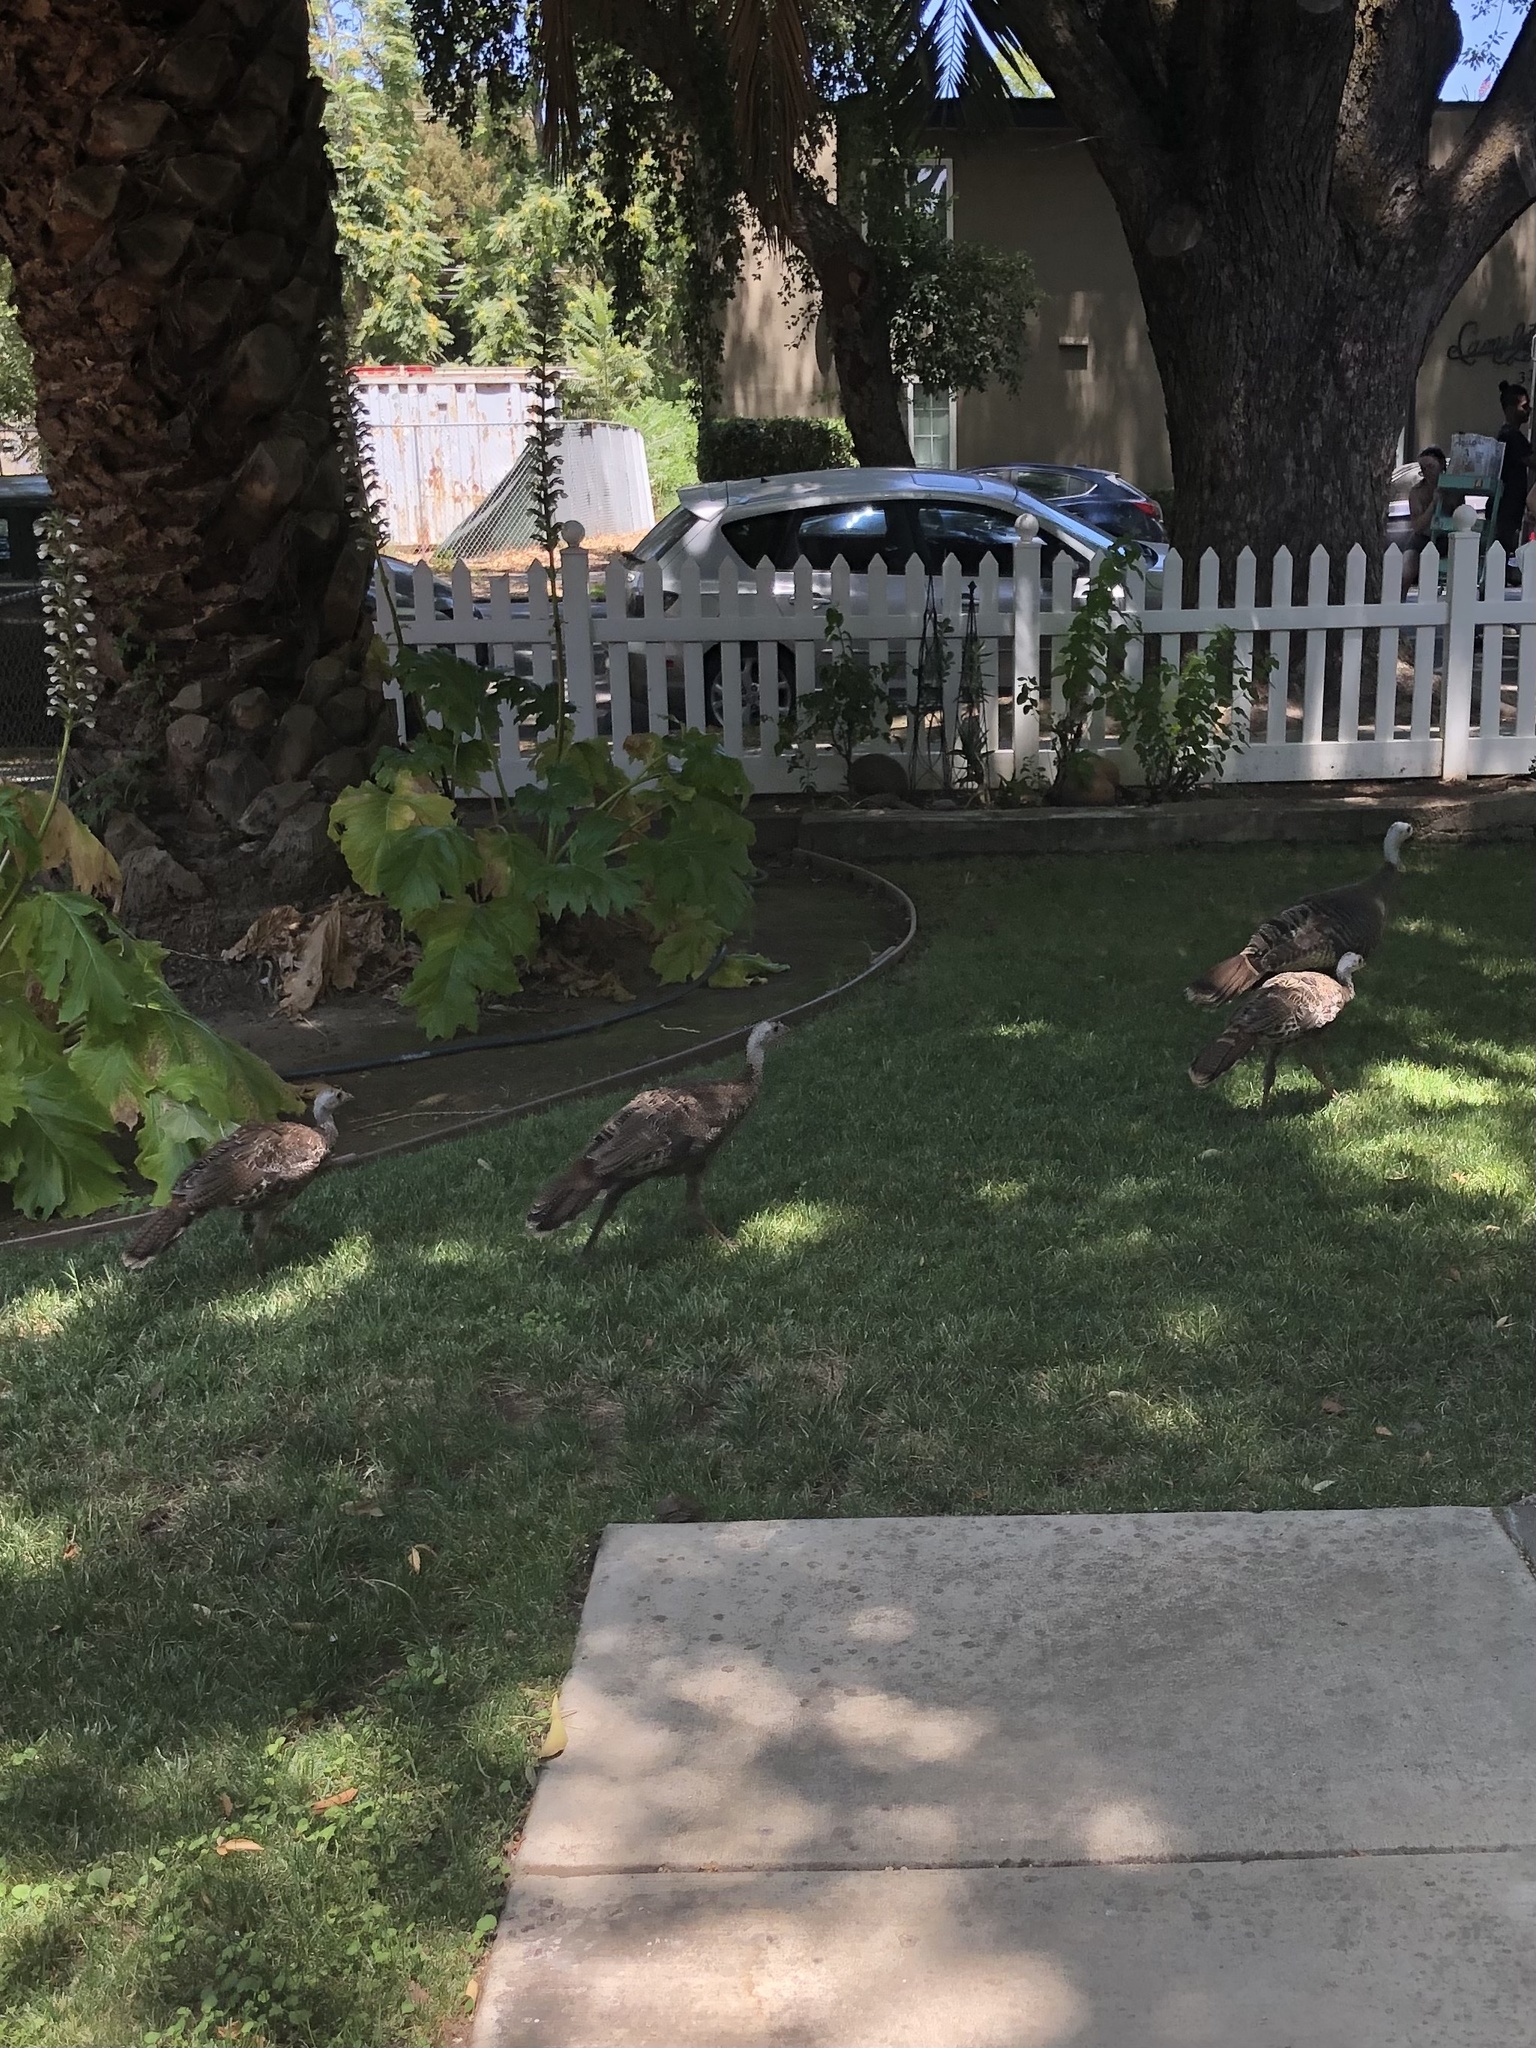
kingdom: Animalia
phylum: Chordata
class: Aves
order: Galliformes
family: Phasianidae
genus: Meleagris
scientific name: Meleagris gallopavo
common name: Wild turkey
